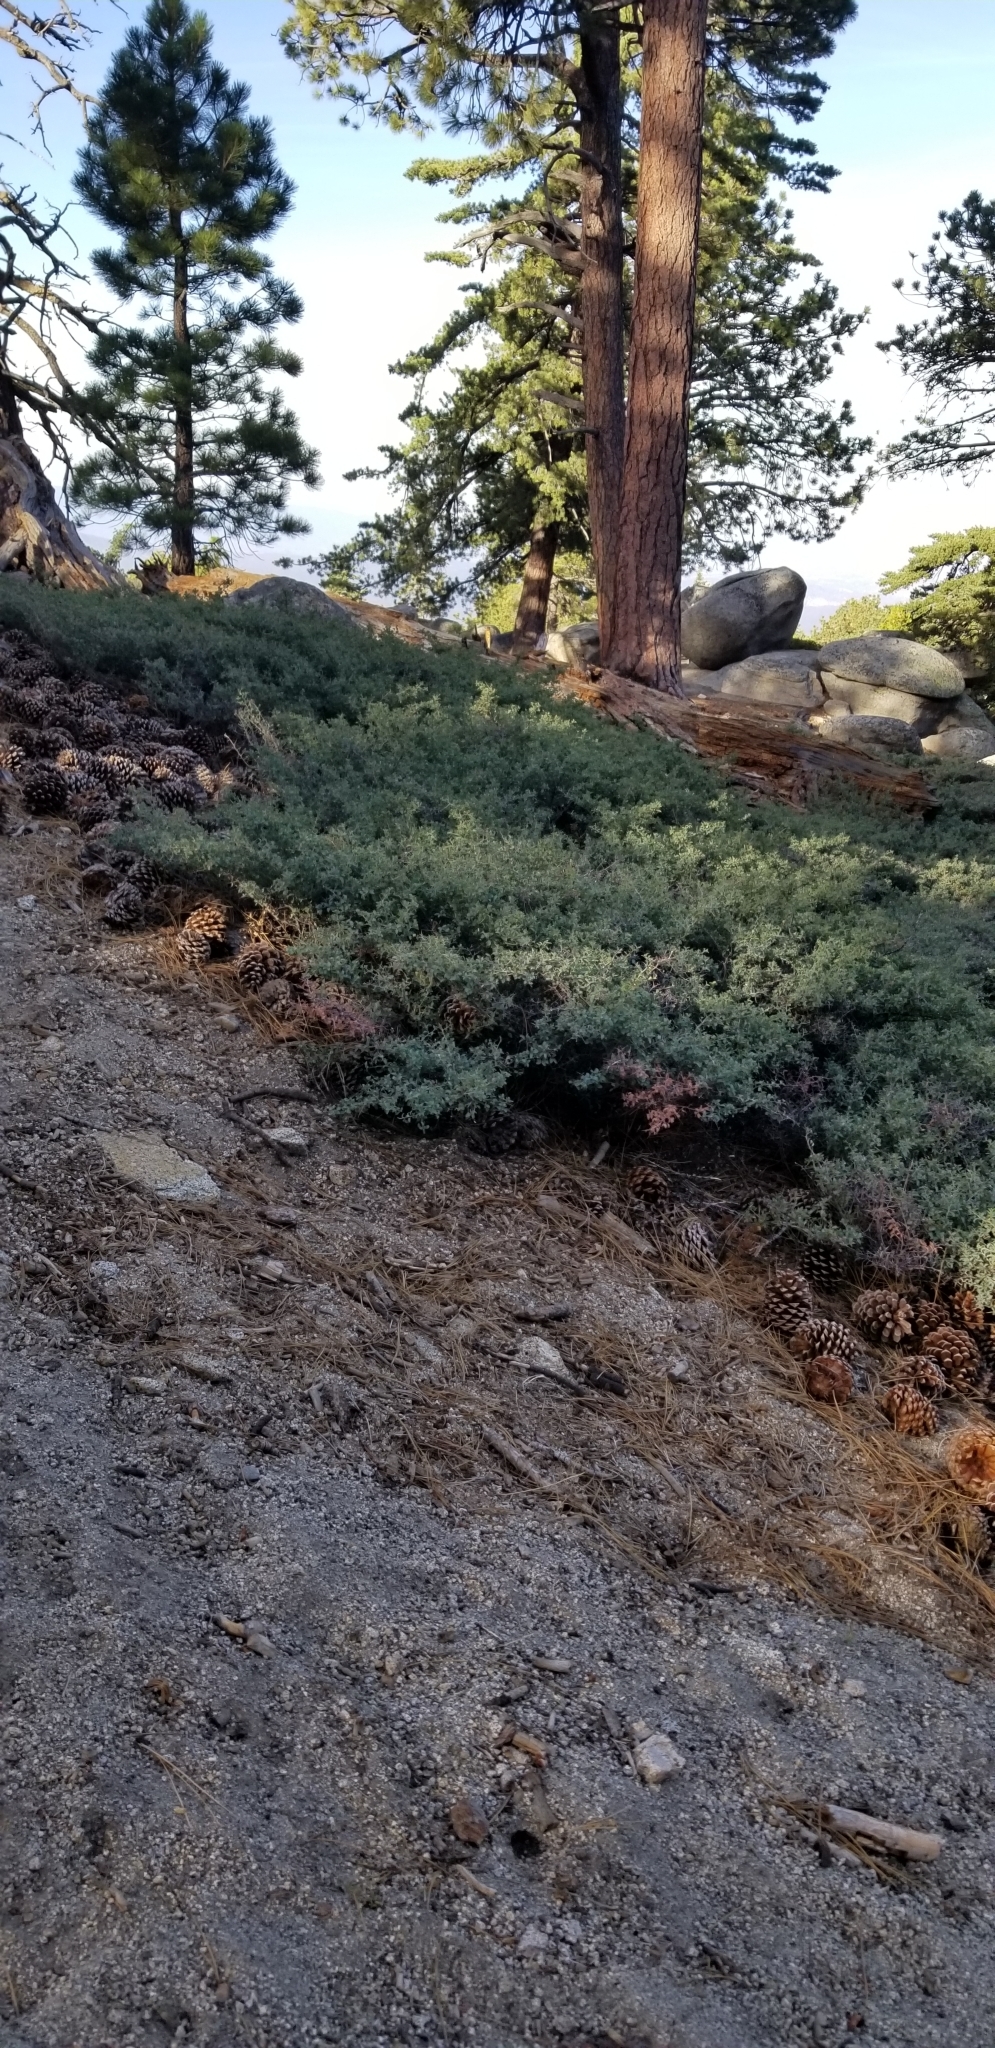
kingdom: Plantae
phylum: Tracheophyta
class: Magnoliopsida
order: Rosales
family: Rhamnaceae
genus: Ceanothus
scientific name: Ceanothus cordulatus
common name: Mountain whitethorn
